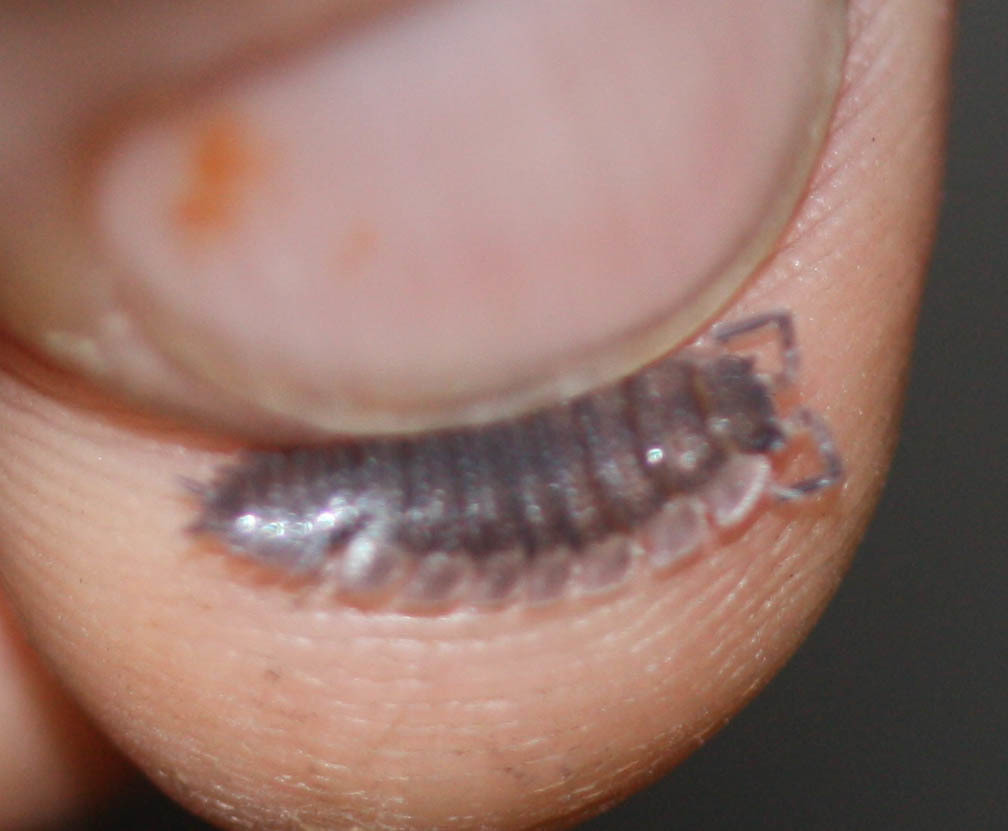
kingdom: Animalia
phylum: Arthropoda
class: Malacostraca
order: Isopoda
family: Porcellionidae
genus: Porcellio
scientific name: Porcellio scaber
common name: Common rough woodlouse
